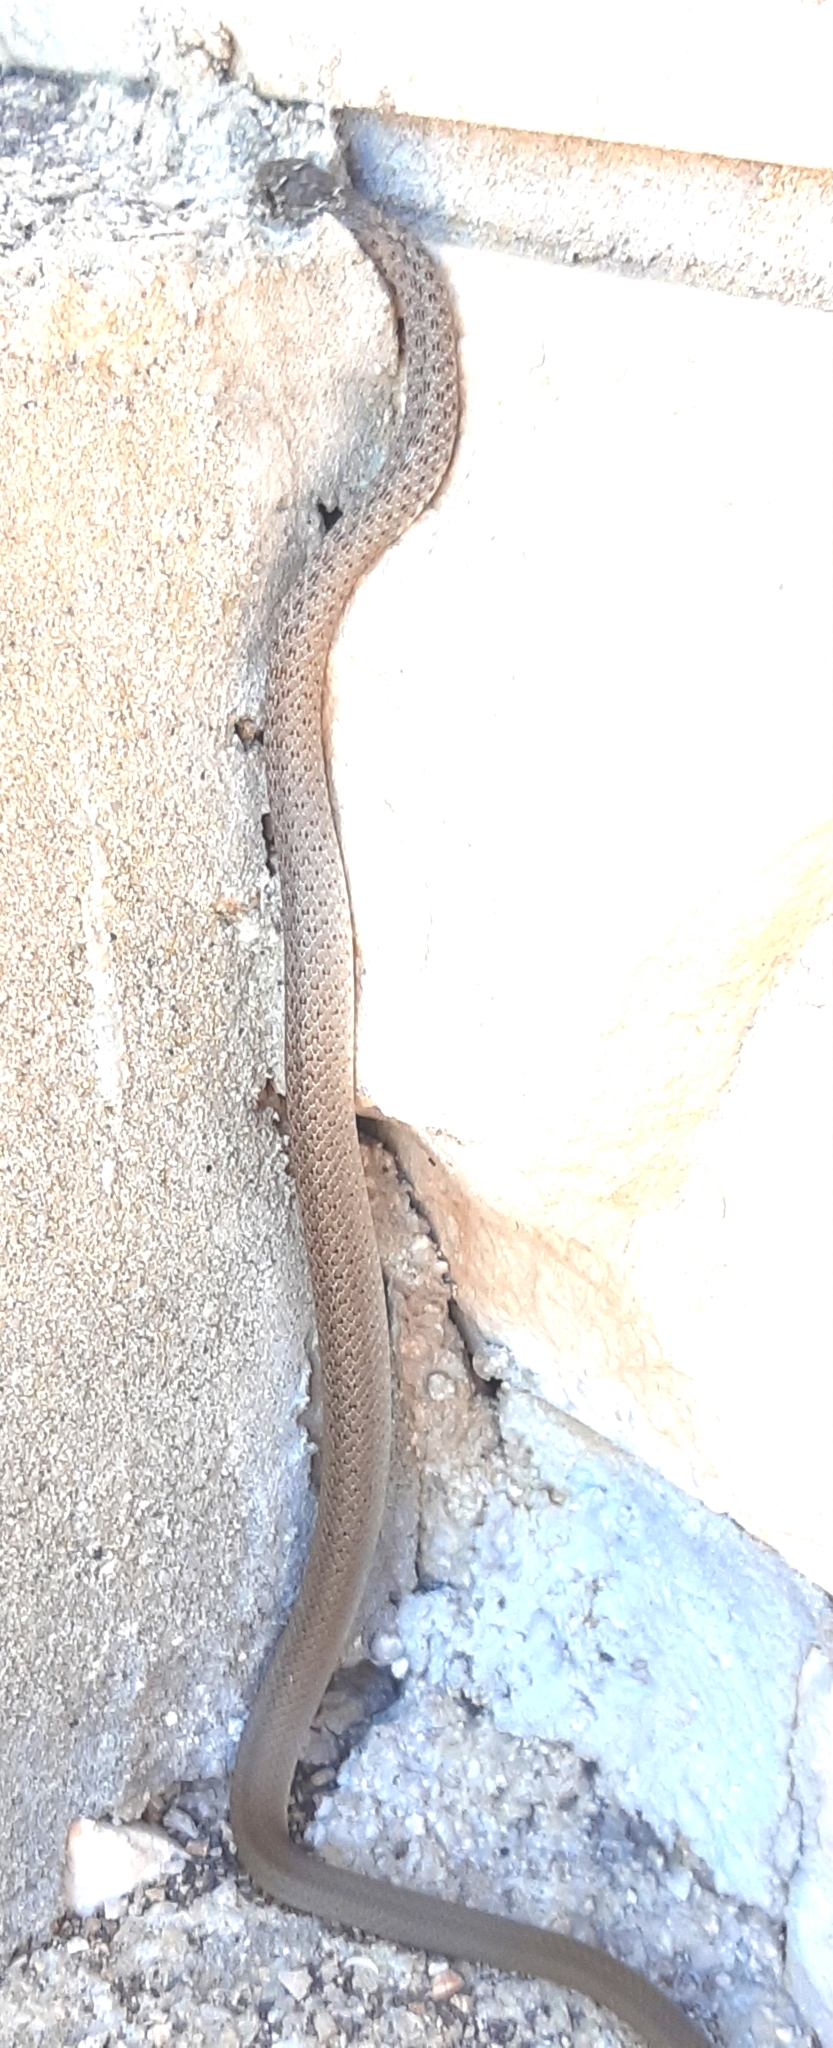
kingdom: Animalia
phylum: Chordata
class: Squamata
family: Colubridae
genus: Hierophis
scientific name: Hierophis gemonensis
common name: Balkan whip snake
